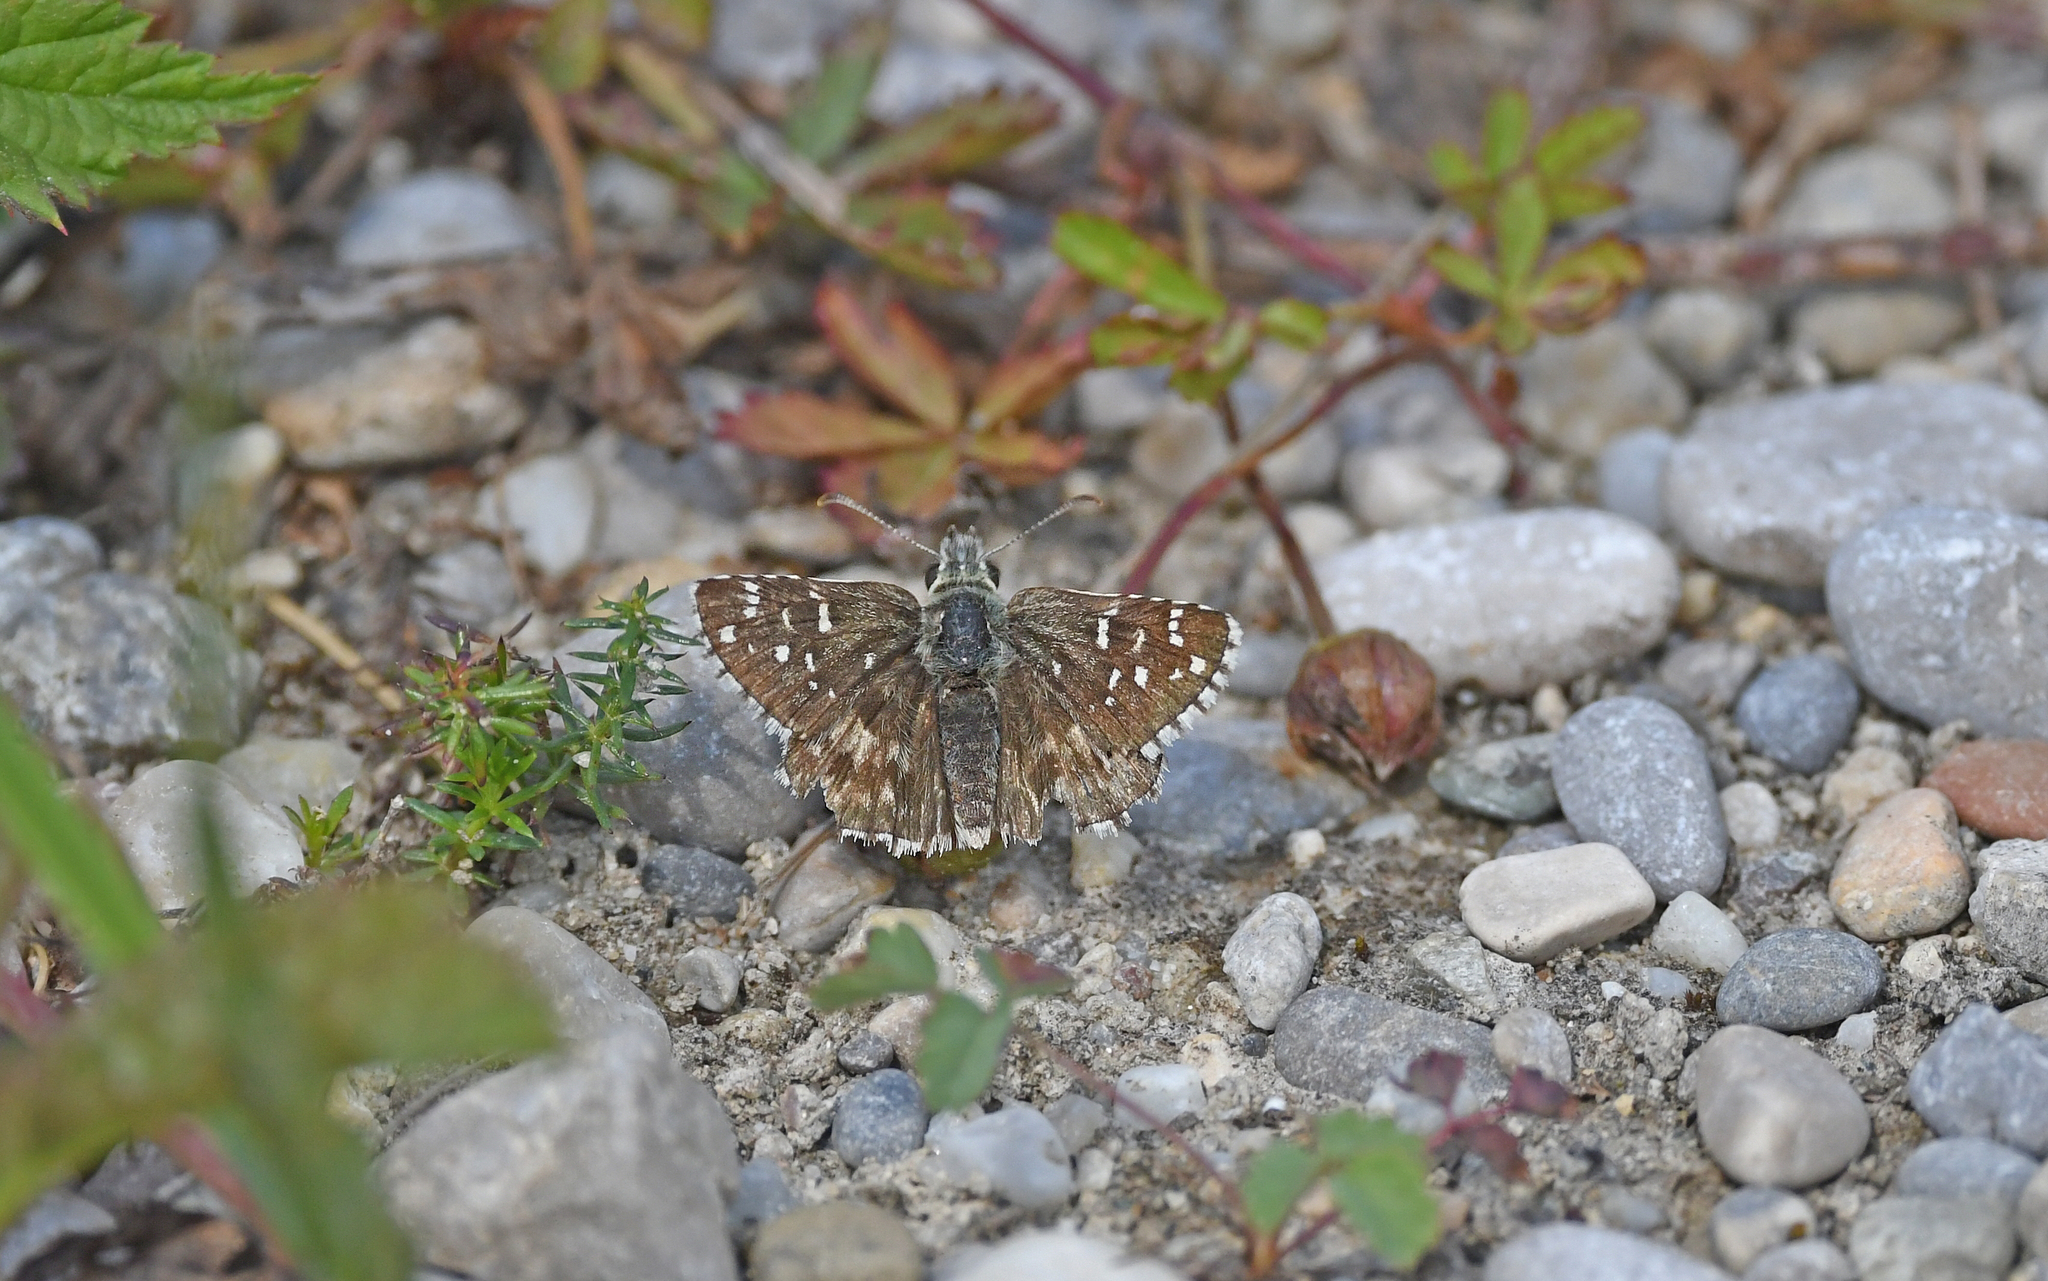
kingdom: Animalia
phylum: Arthropoda
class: Insecta
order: Lepidoptera
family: Hesperiidae
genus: Pyrgus
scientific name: Pyrgus armoricanus
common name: Oberthür's grizzled skipper
